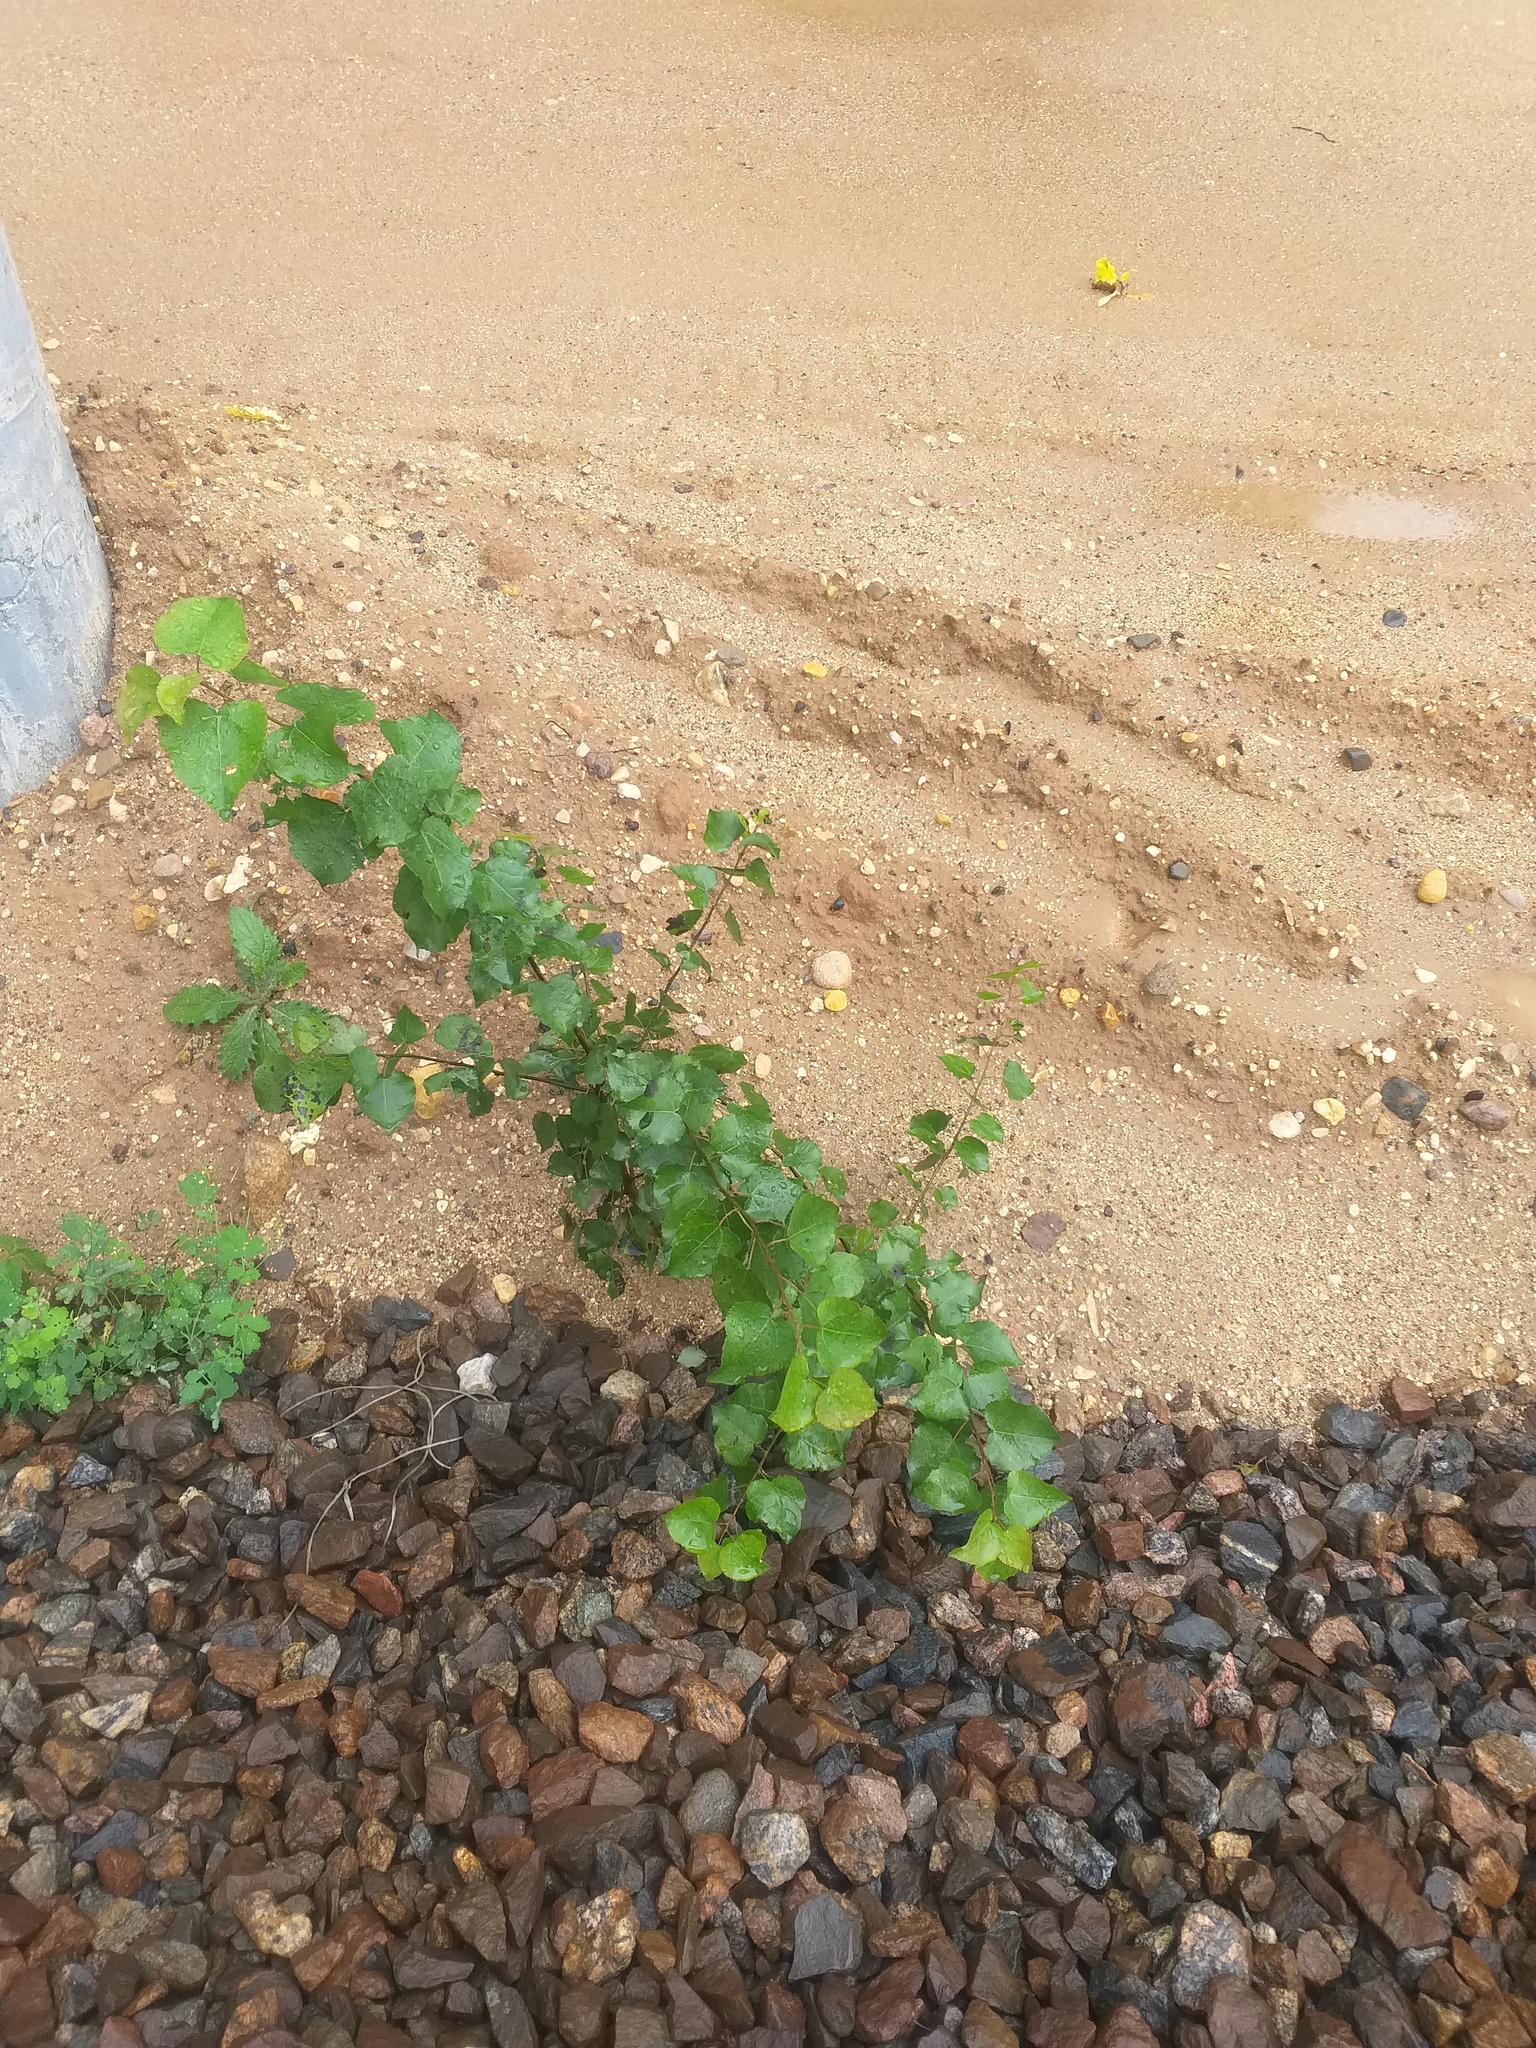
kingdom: Plantae
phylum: Tracheophyta
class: Magnoliopsida
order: Malpighiales
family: Salicaceae
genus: Populus
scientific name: Populus tremula
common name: European aspen
